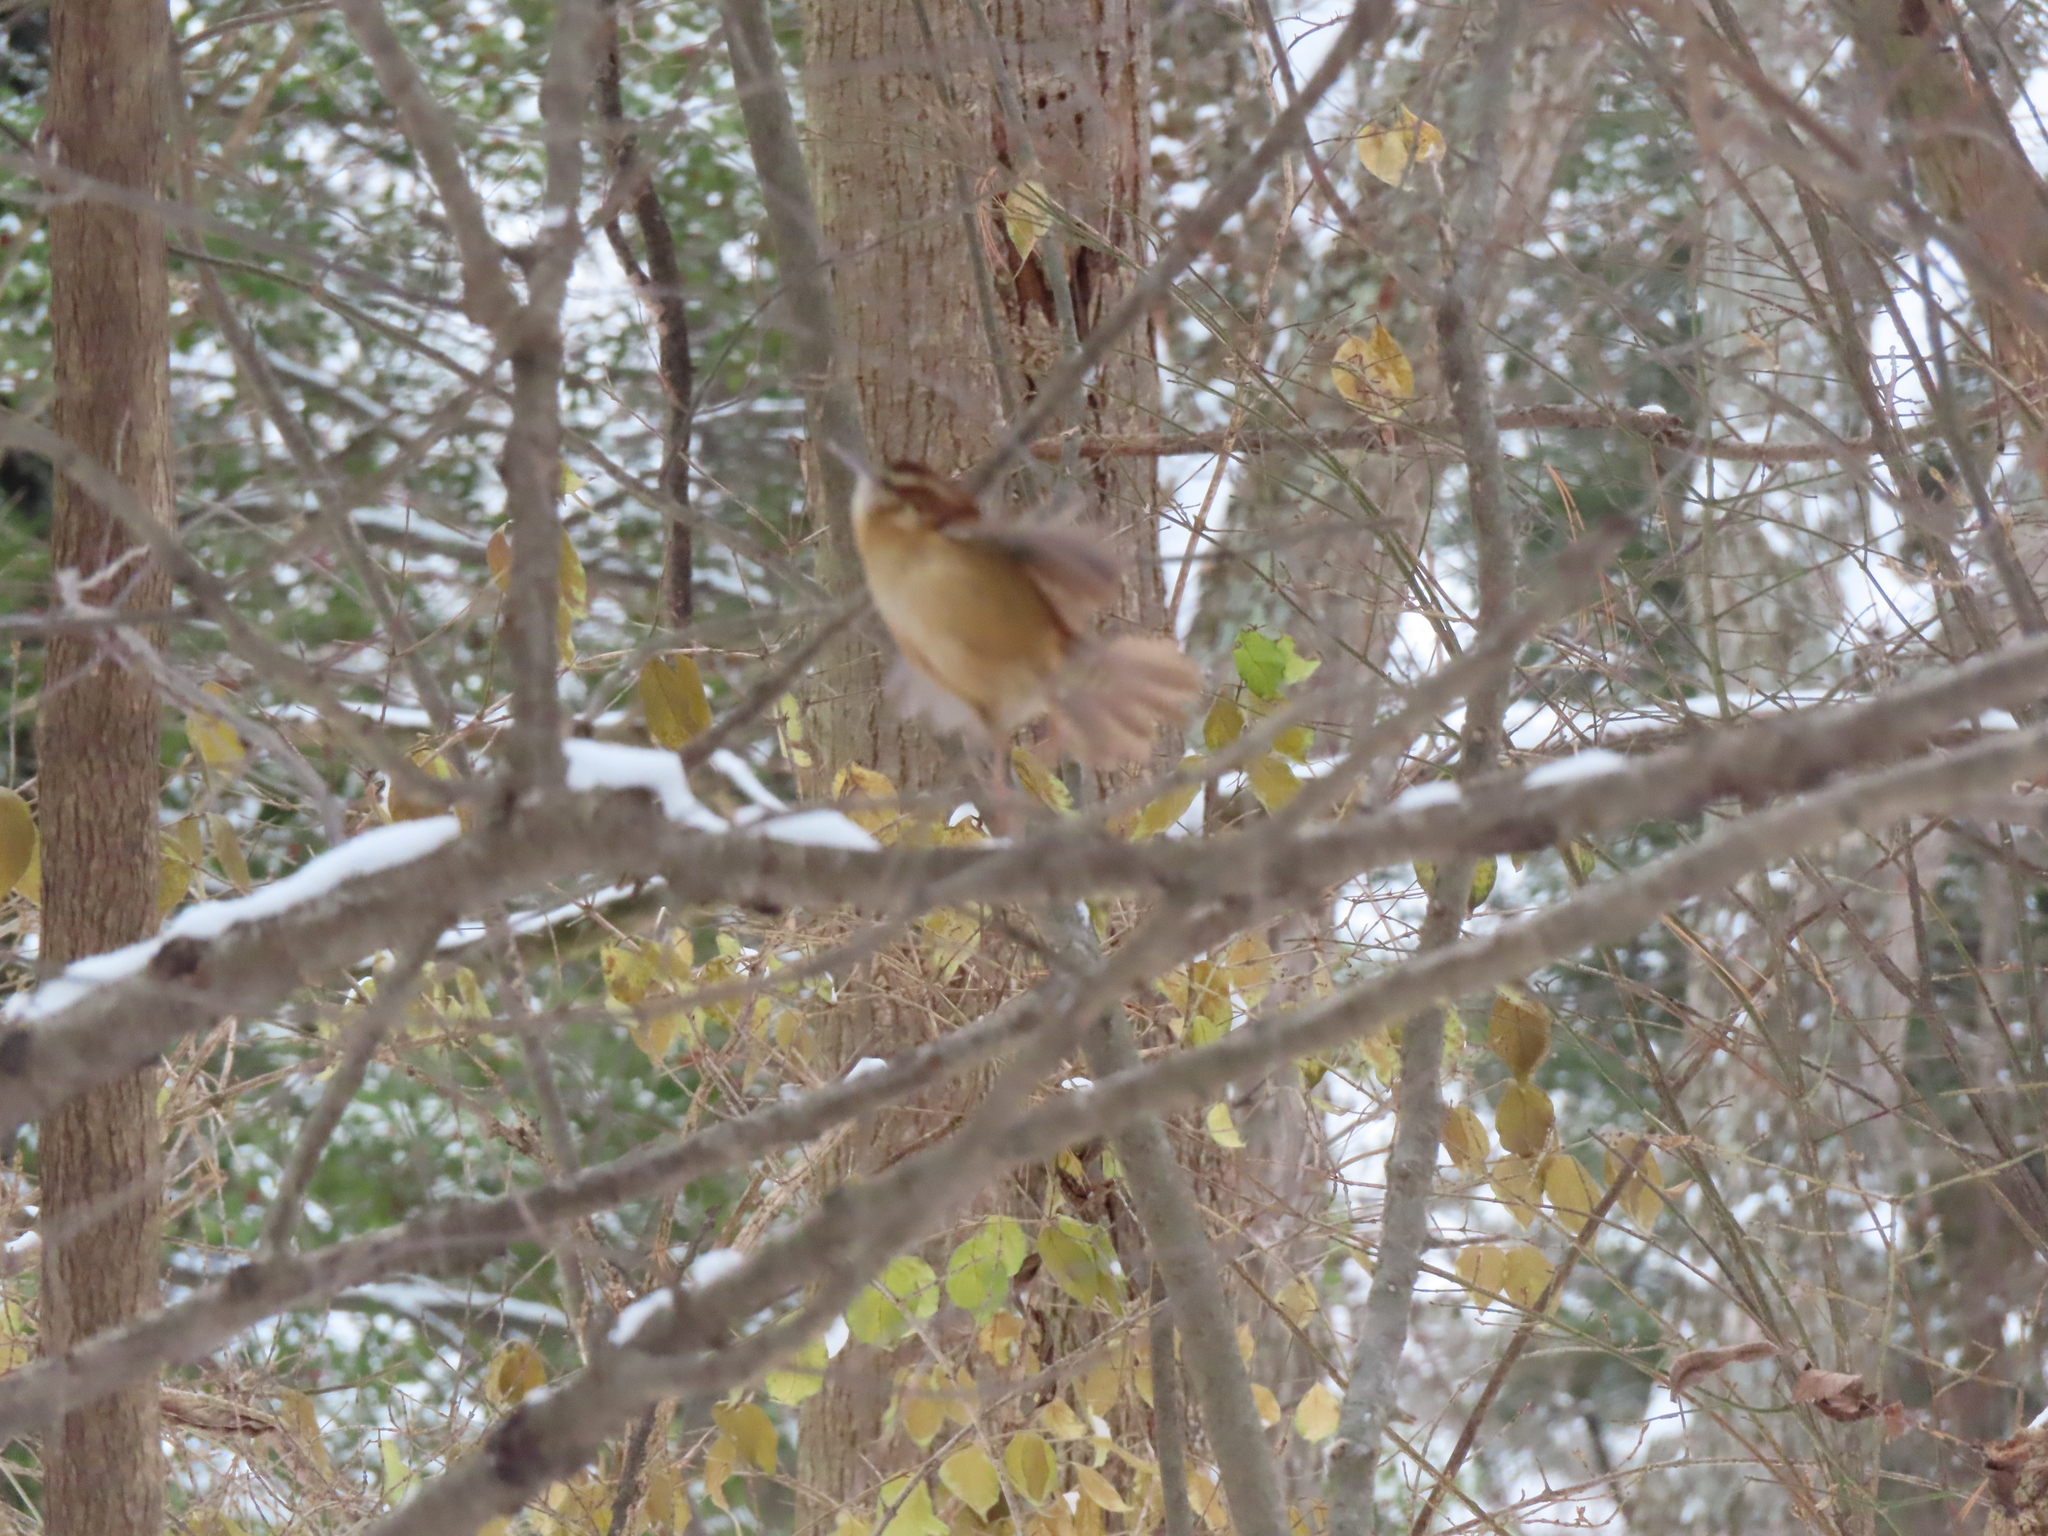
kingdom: Animalia
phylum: Chordata
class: Aves
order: Passeriformes
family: Troglodytidae
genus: Thryothorus
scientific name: Thryothorus ludovicianus
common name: Carolina wren
